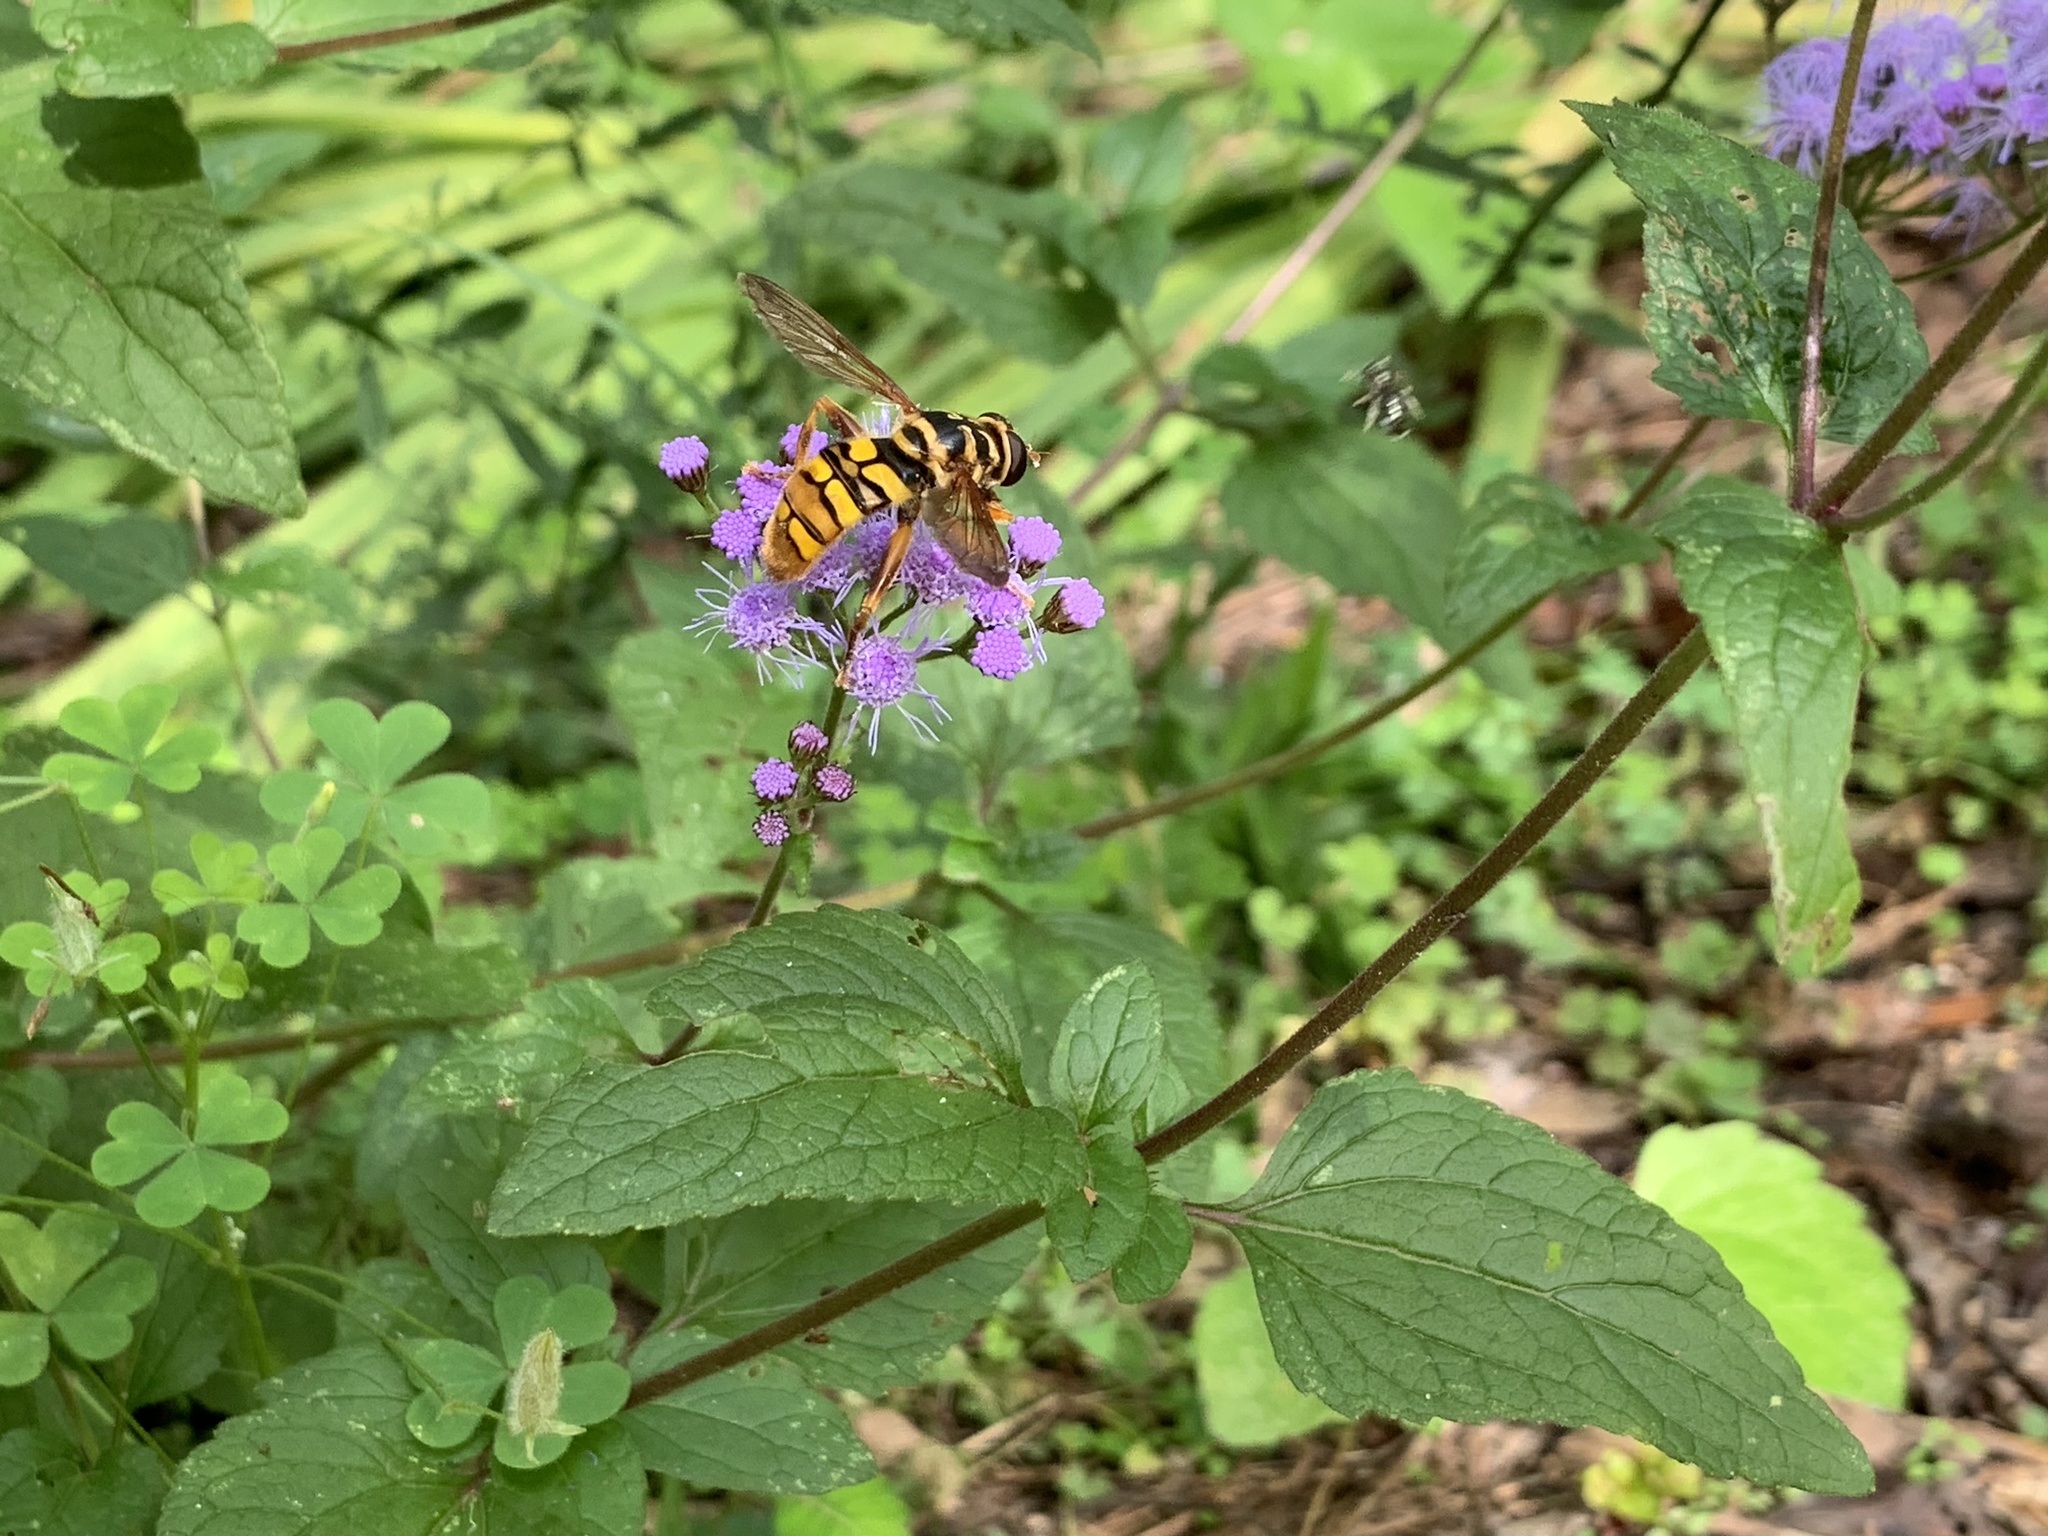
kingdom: Animalia
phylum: Arthropoda
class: Insecta
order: Diptera
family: Syrphidae
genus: Milesia
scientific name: Milesia virginiensis
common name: Virginia giant
